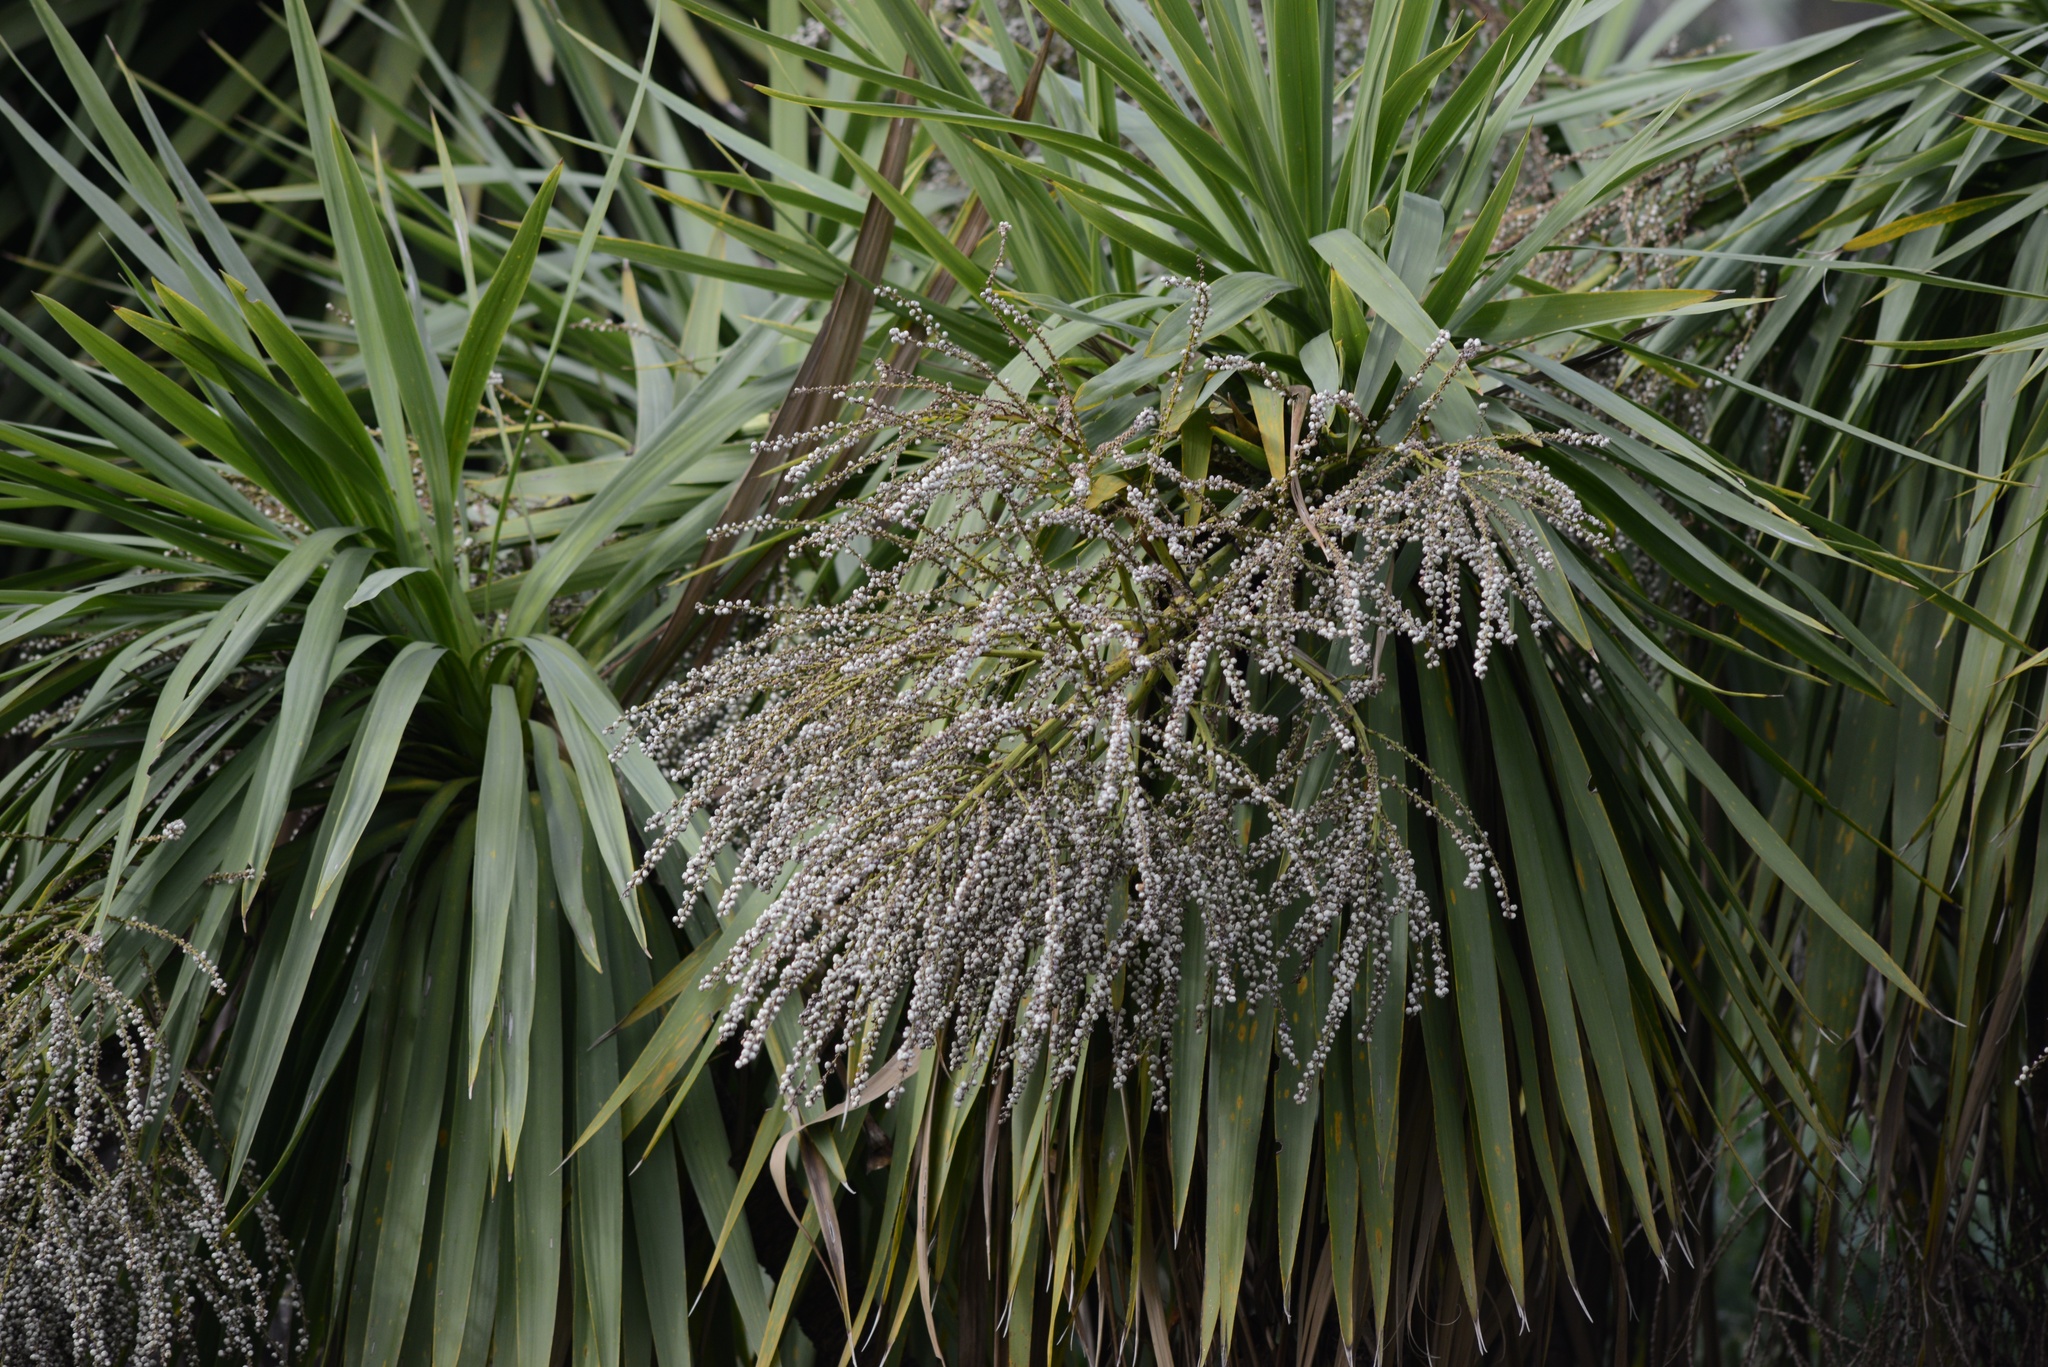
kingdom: Plantae
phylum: Tracheophyta
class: Liliopsida
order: Asparagales
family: Asparagaceae
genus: Cordyline
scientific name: Cordyline australis
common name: Cabbage-palm
